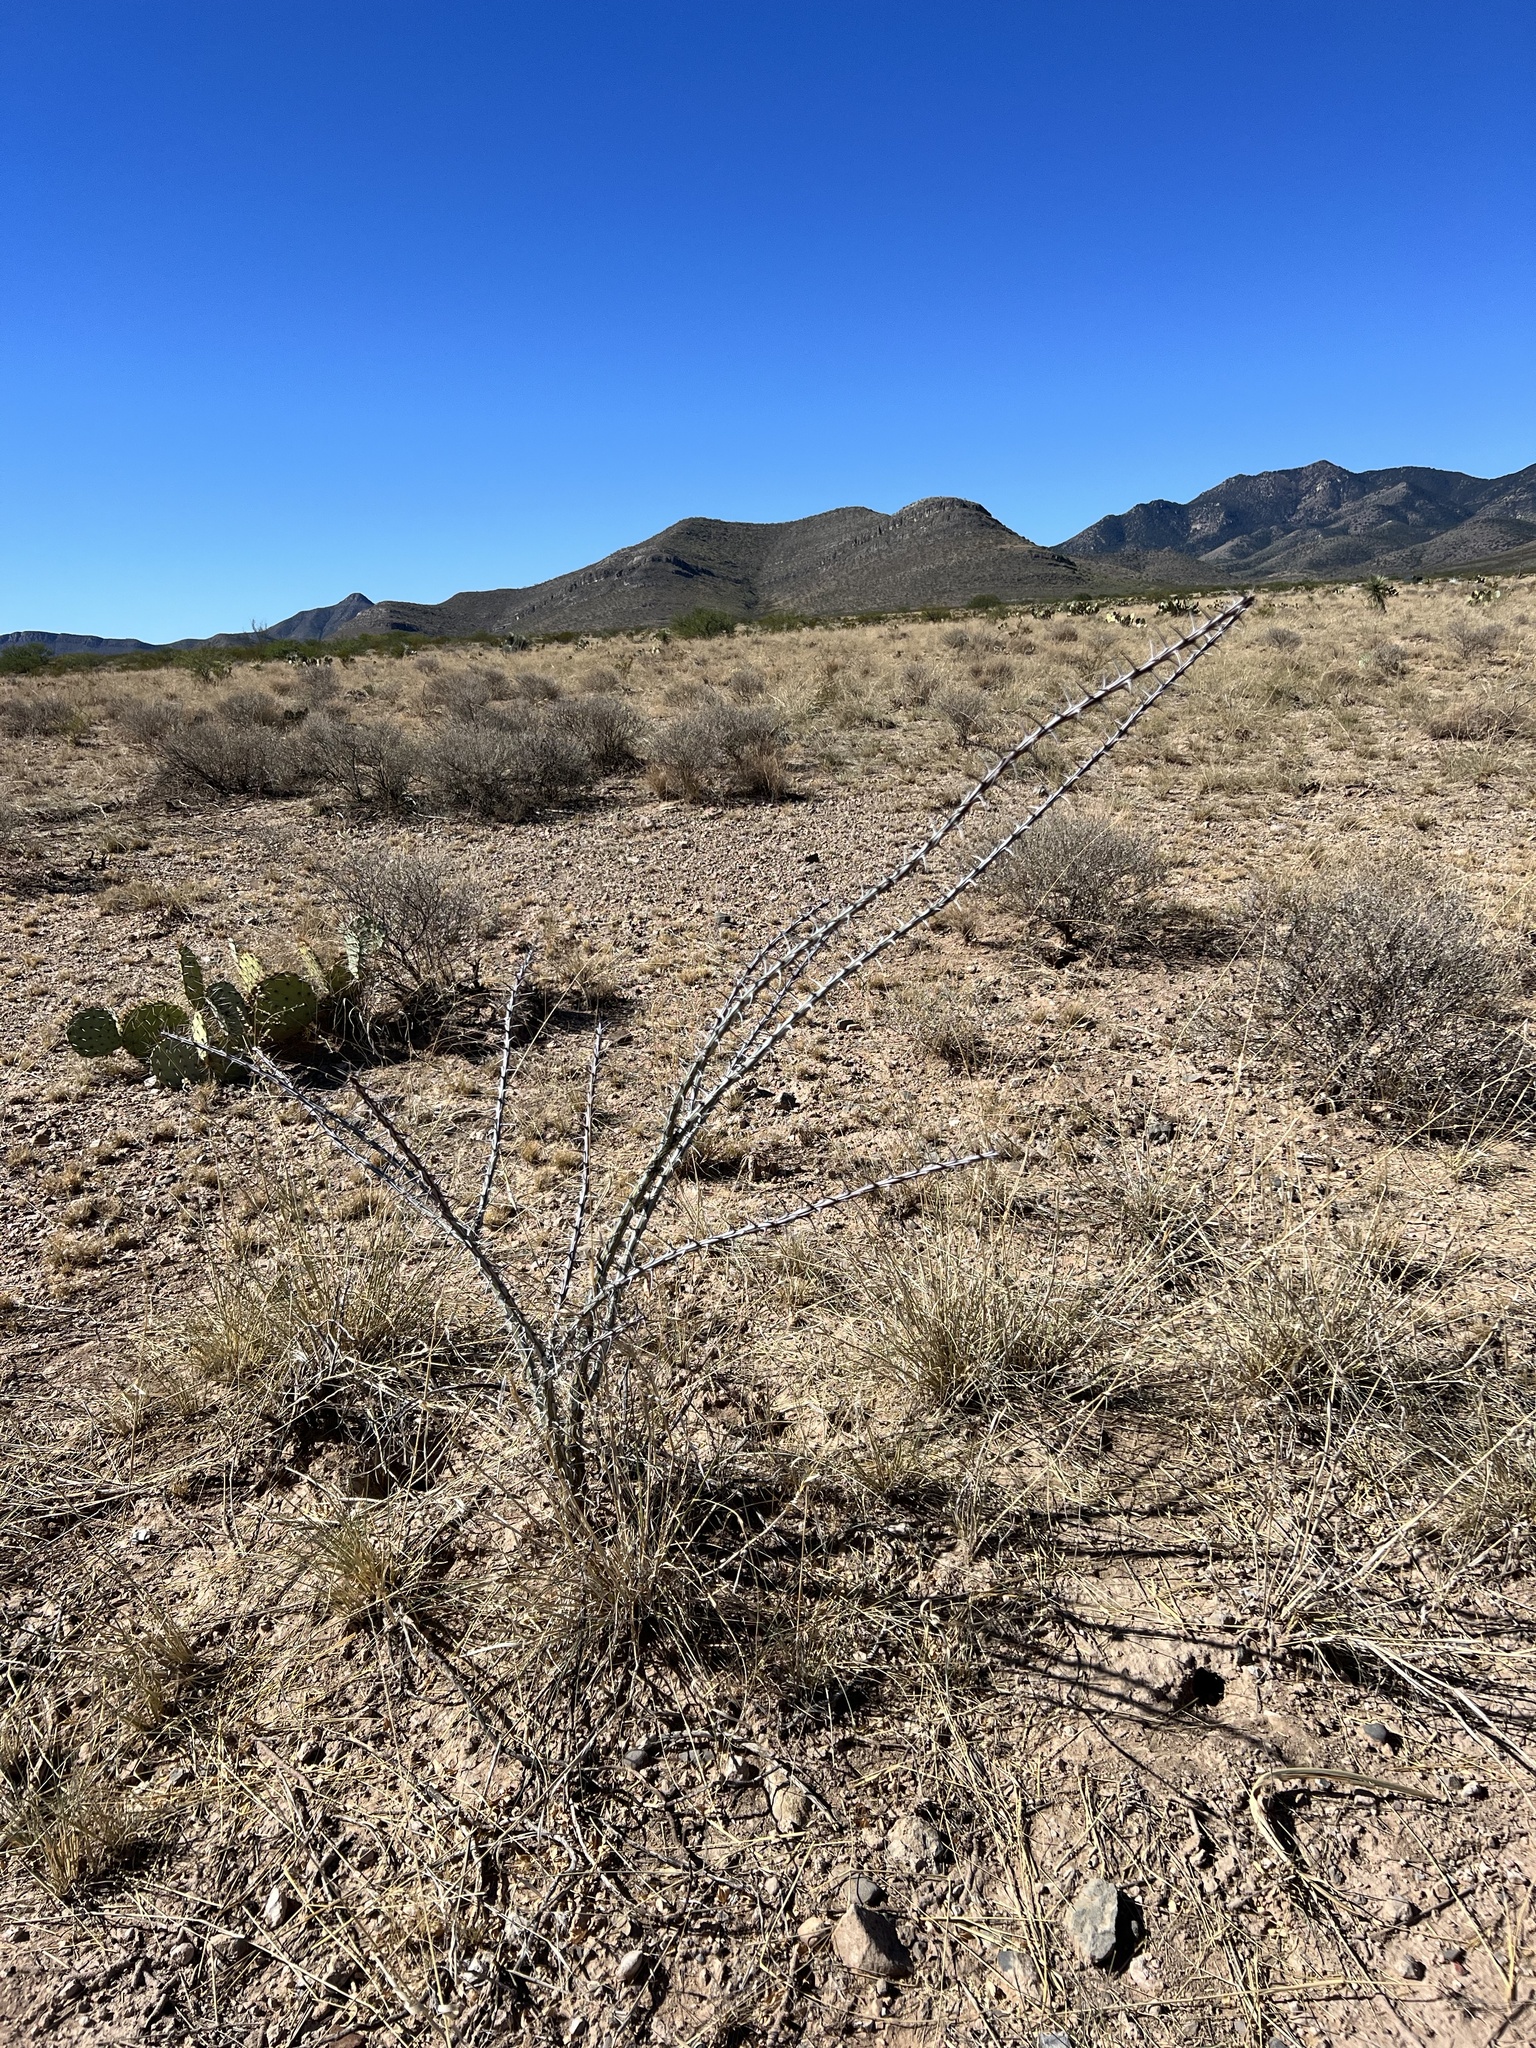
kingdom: Plantae
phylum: Tracheophyta
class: Magnoliopsida
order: Ericales
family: Fouquieriaceae
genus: Fouquieria
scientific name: Fouquieria splendens
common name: Vine-cactus
